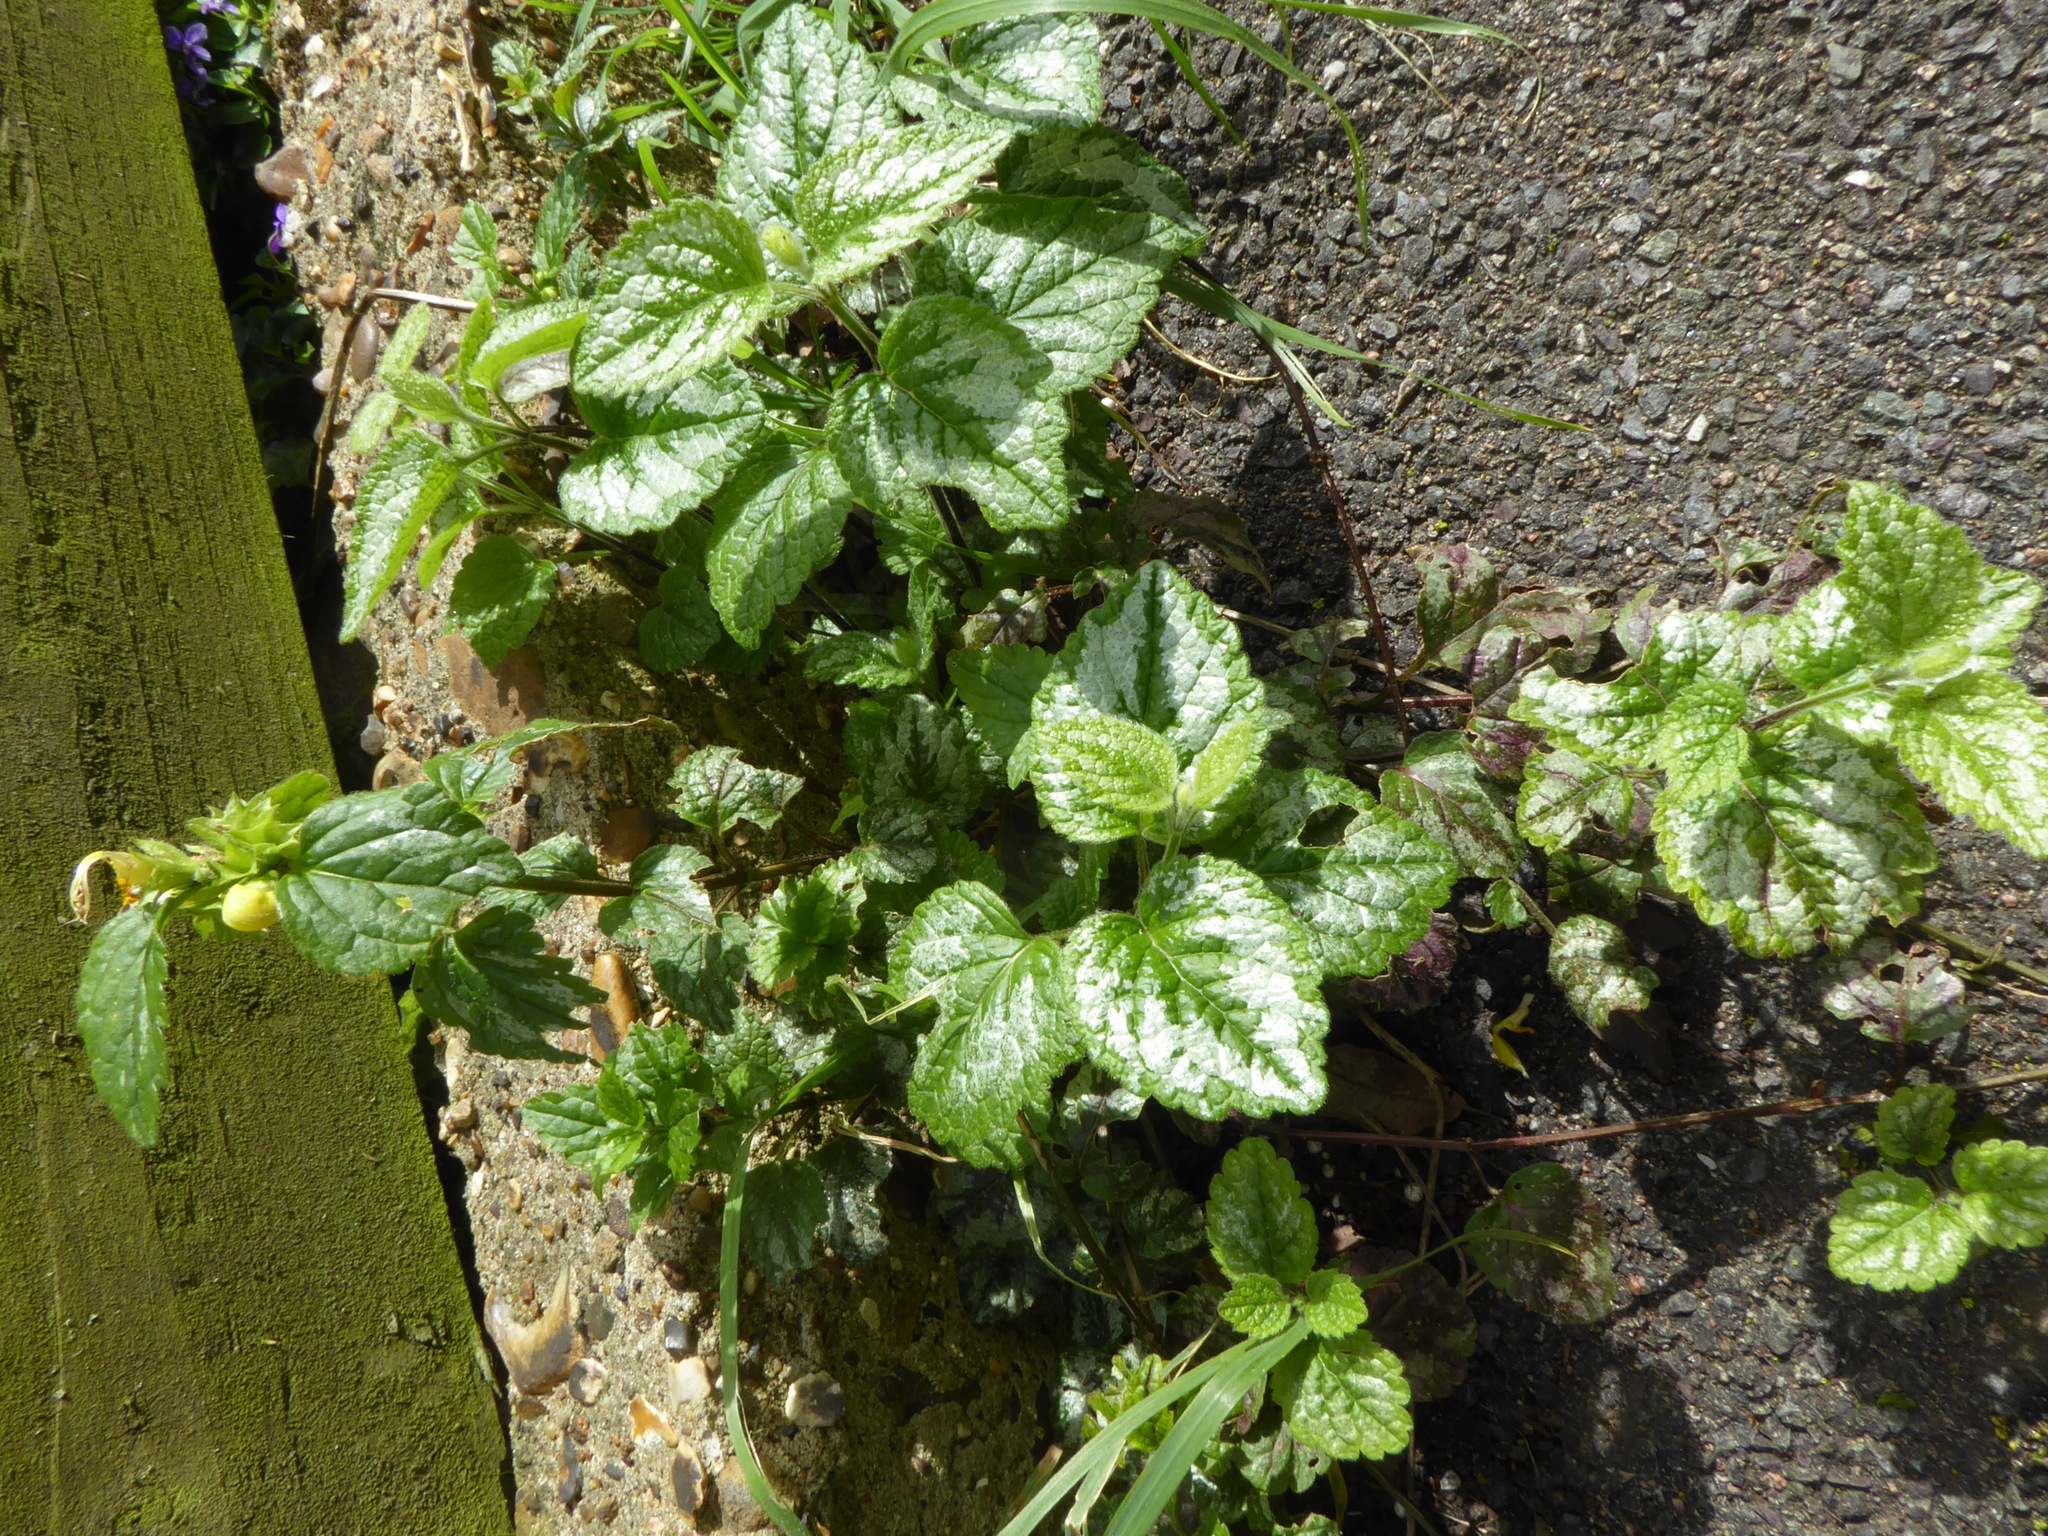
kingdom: Plantae
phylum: Tracheophyta
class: Magnoliopsida
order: Lamiales
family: Lamiaceae
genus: Lamium
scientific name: Lamium galeobdolon
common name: Yellow archangel
